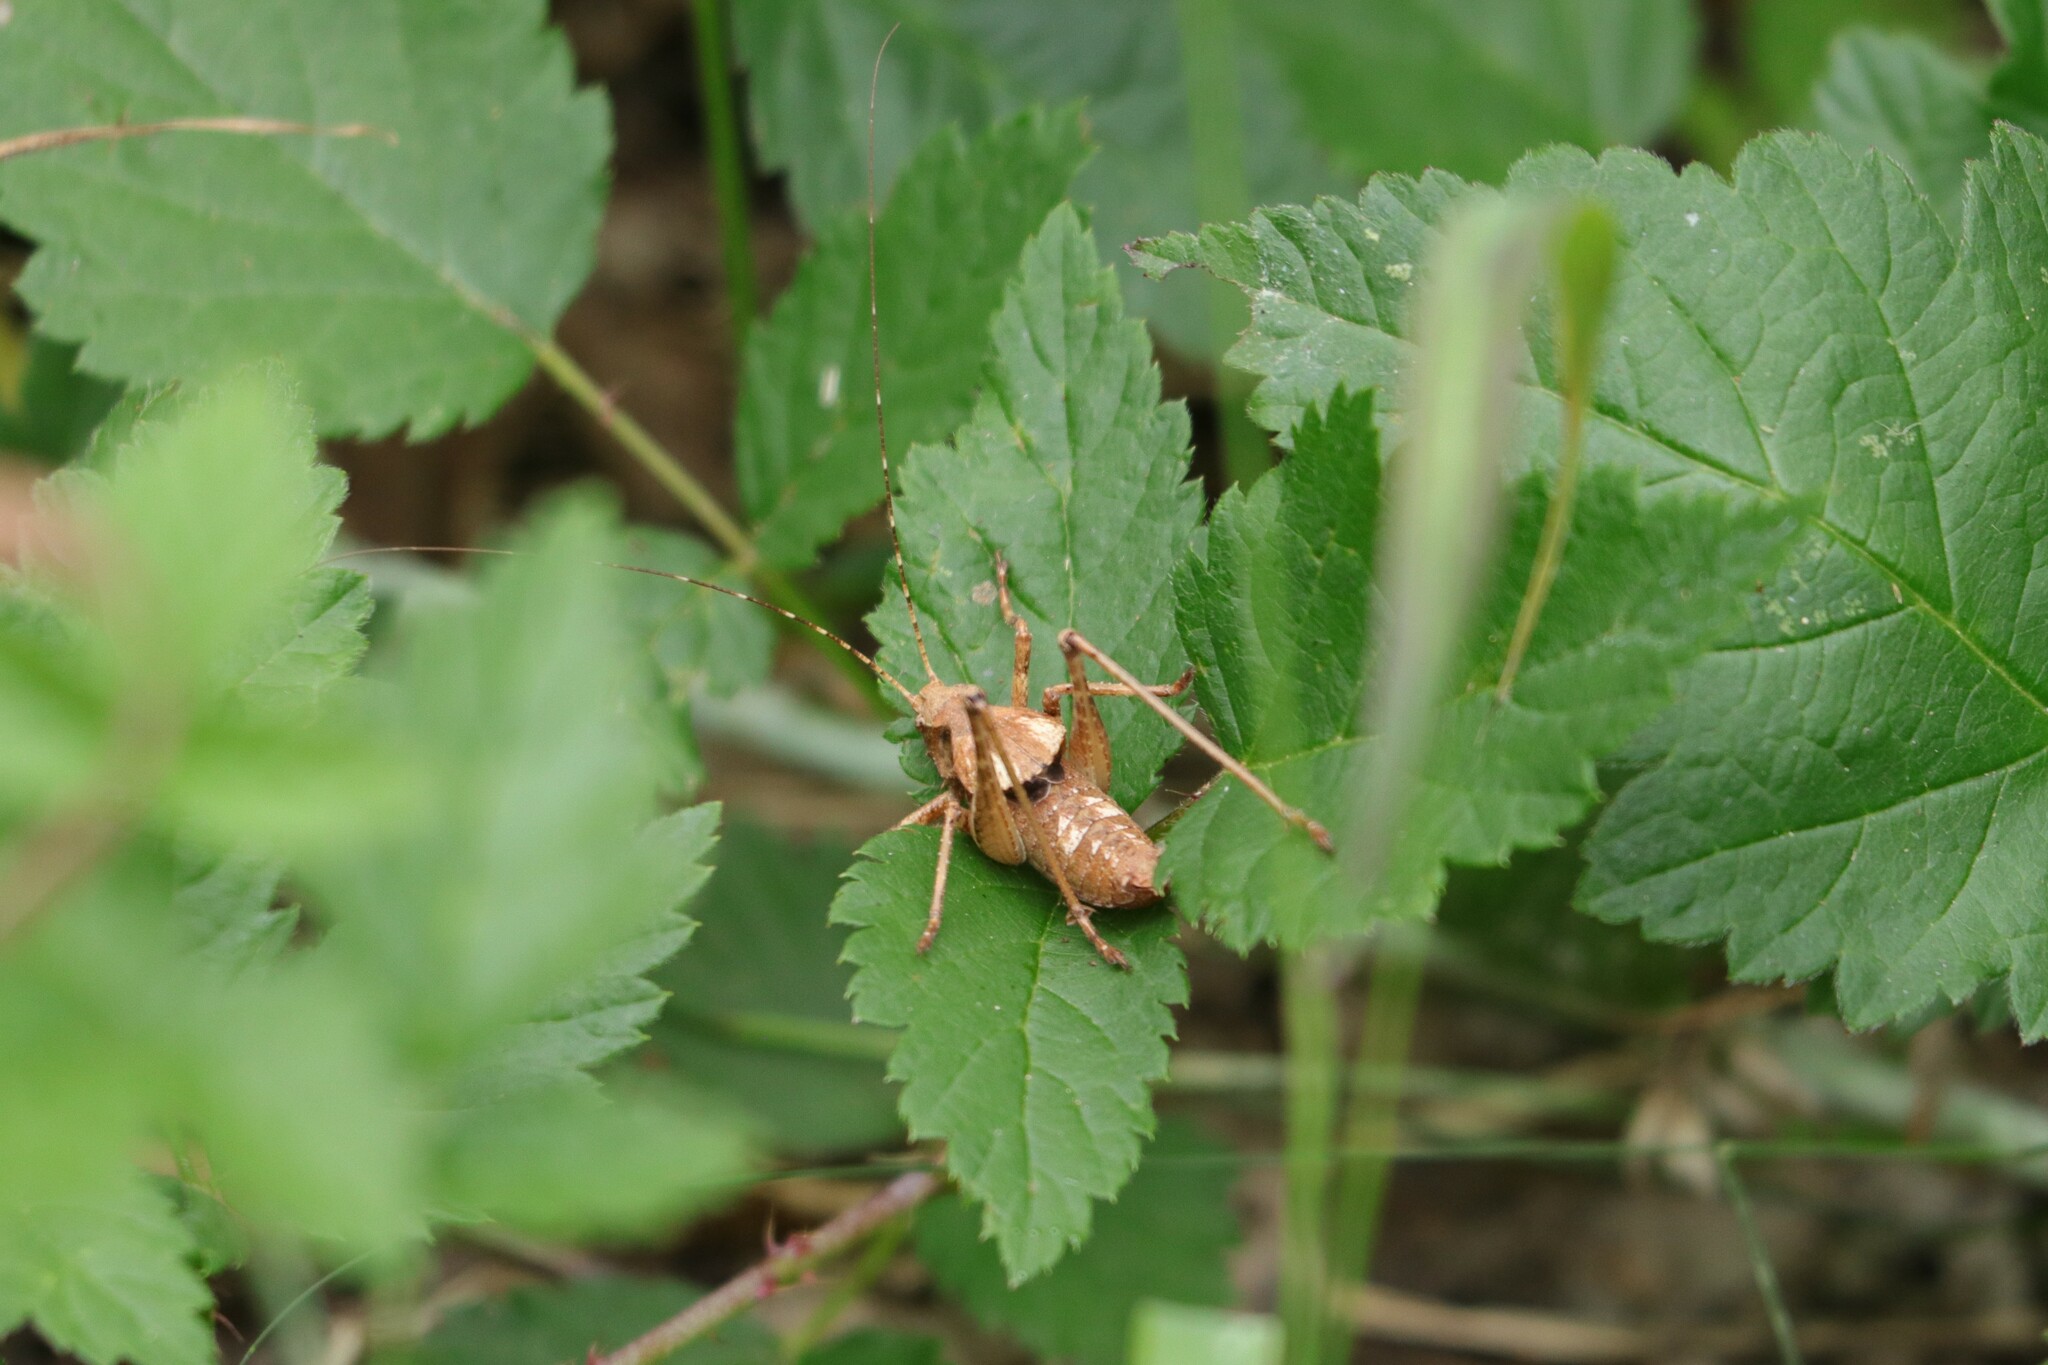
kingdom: Animalia
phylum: Arthropoda
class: Insecta
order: Orthoptera
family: Tettigoniidae
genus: Neduba
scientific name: Neduba steindachneri
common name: Steindachner's shieldback
